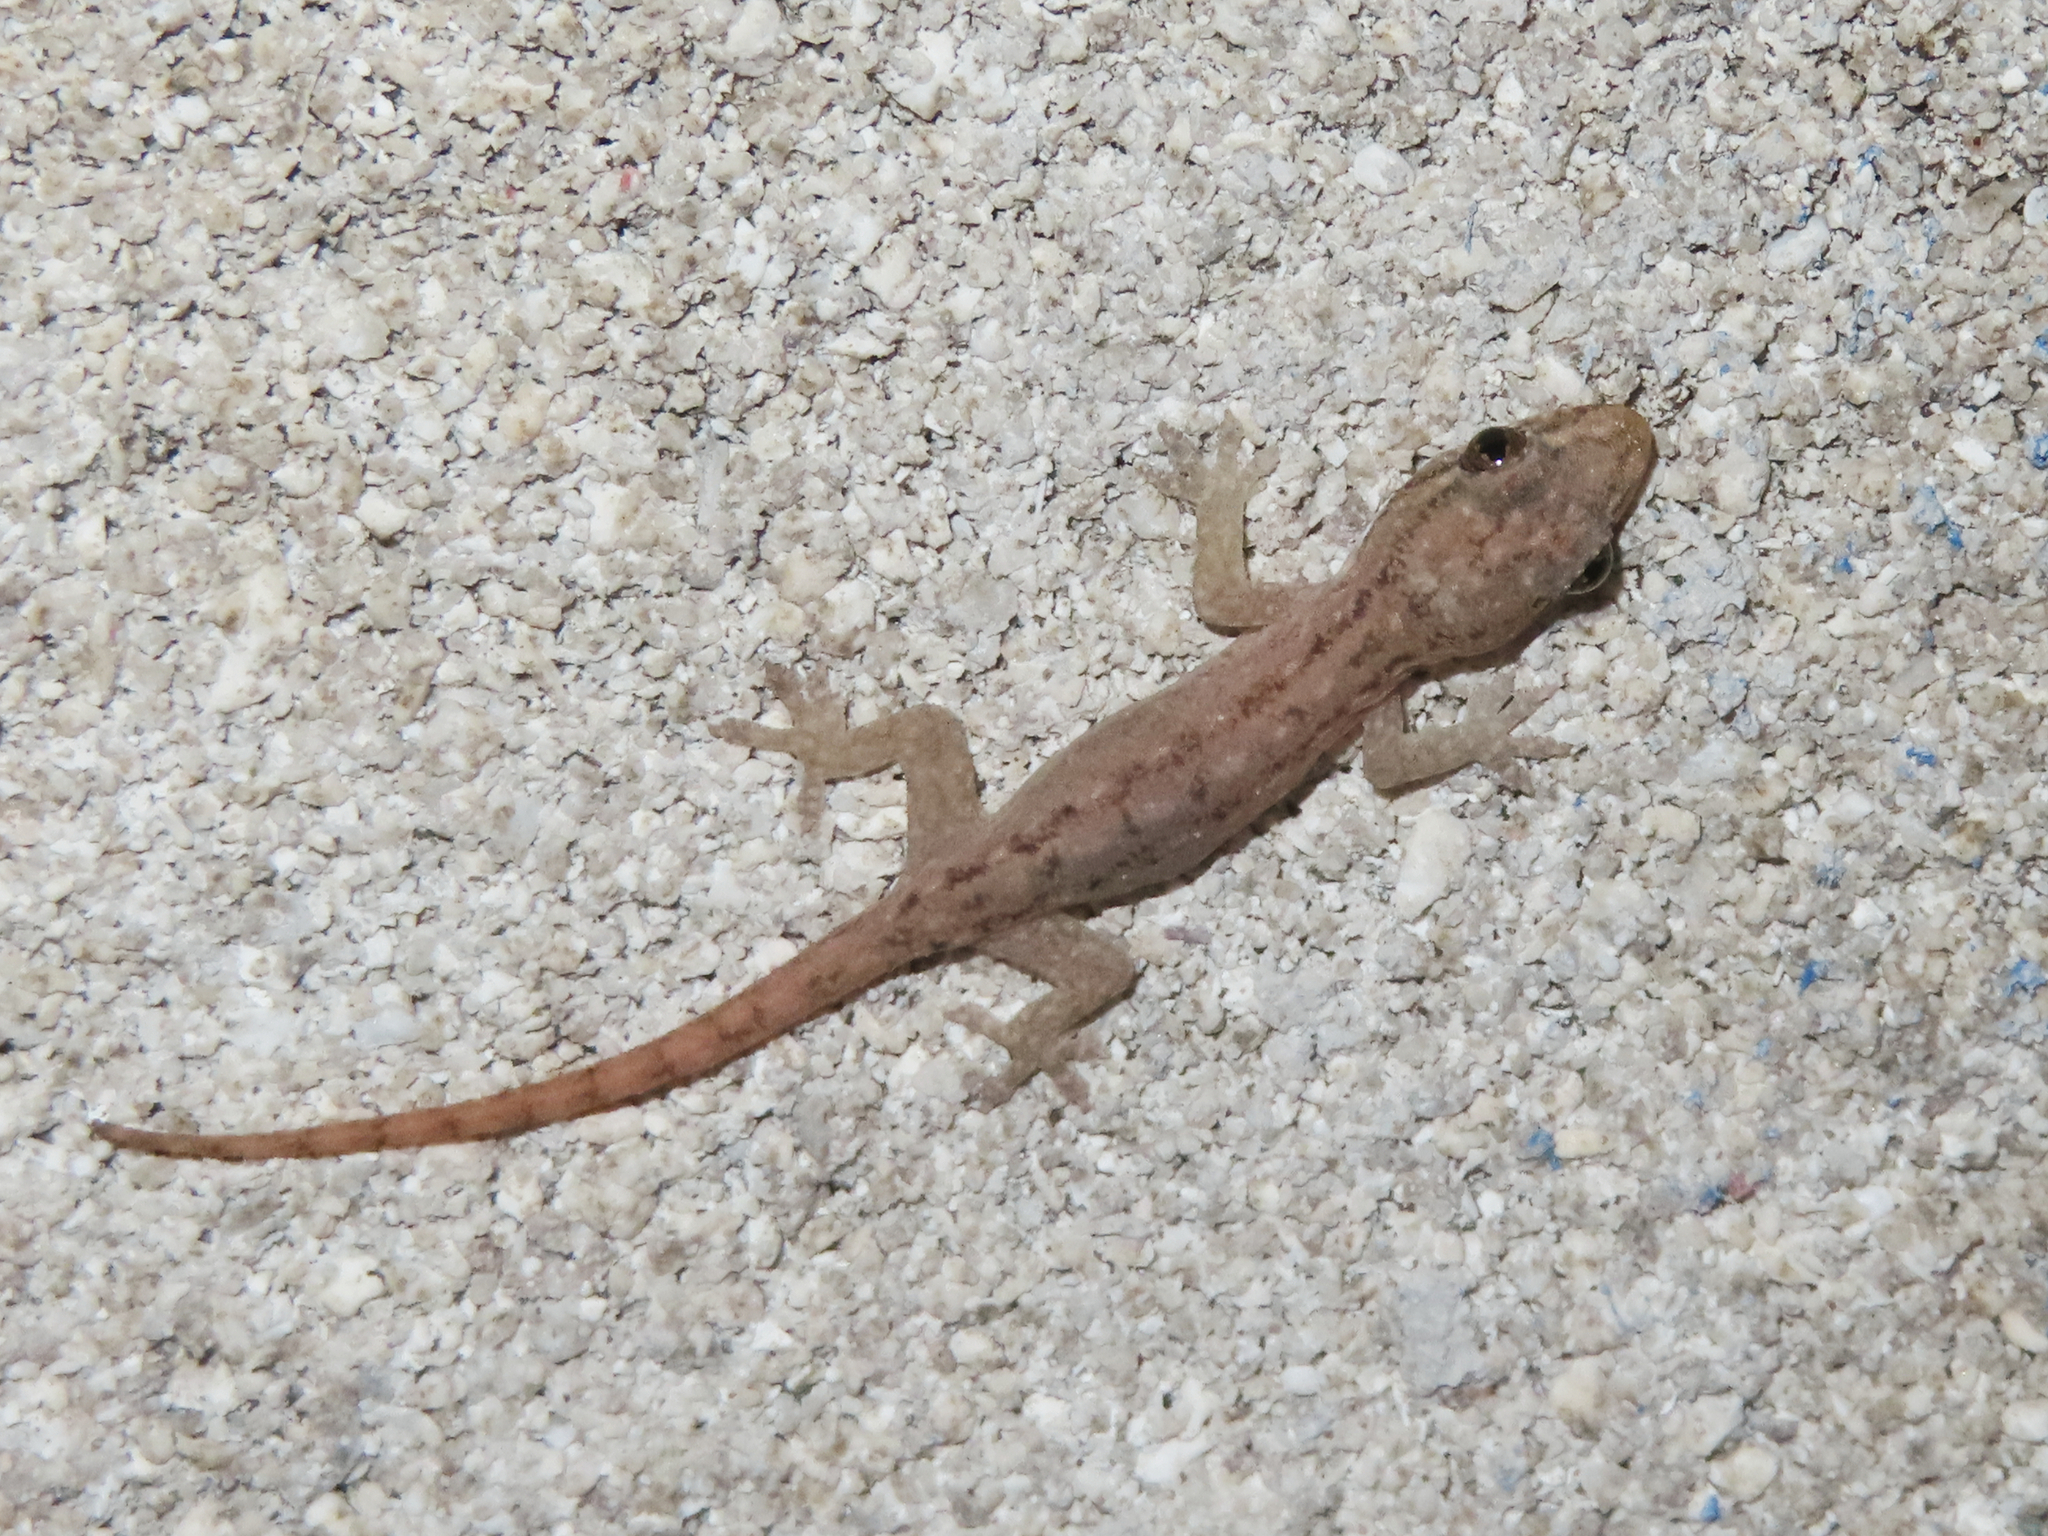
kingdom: Animalia
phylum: Chordata
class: Squamata
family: Gekkonidae
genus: Hemidactylus
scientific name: Hemidactylus frenatus
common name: Common house gecko
